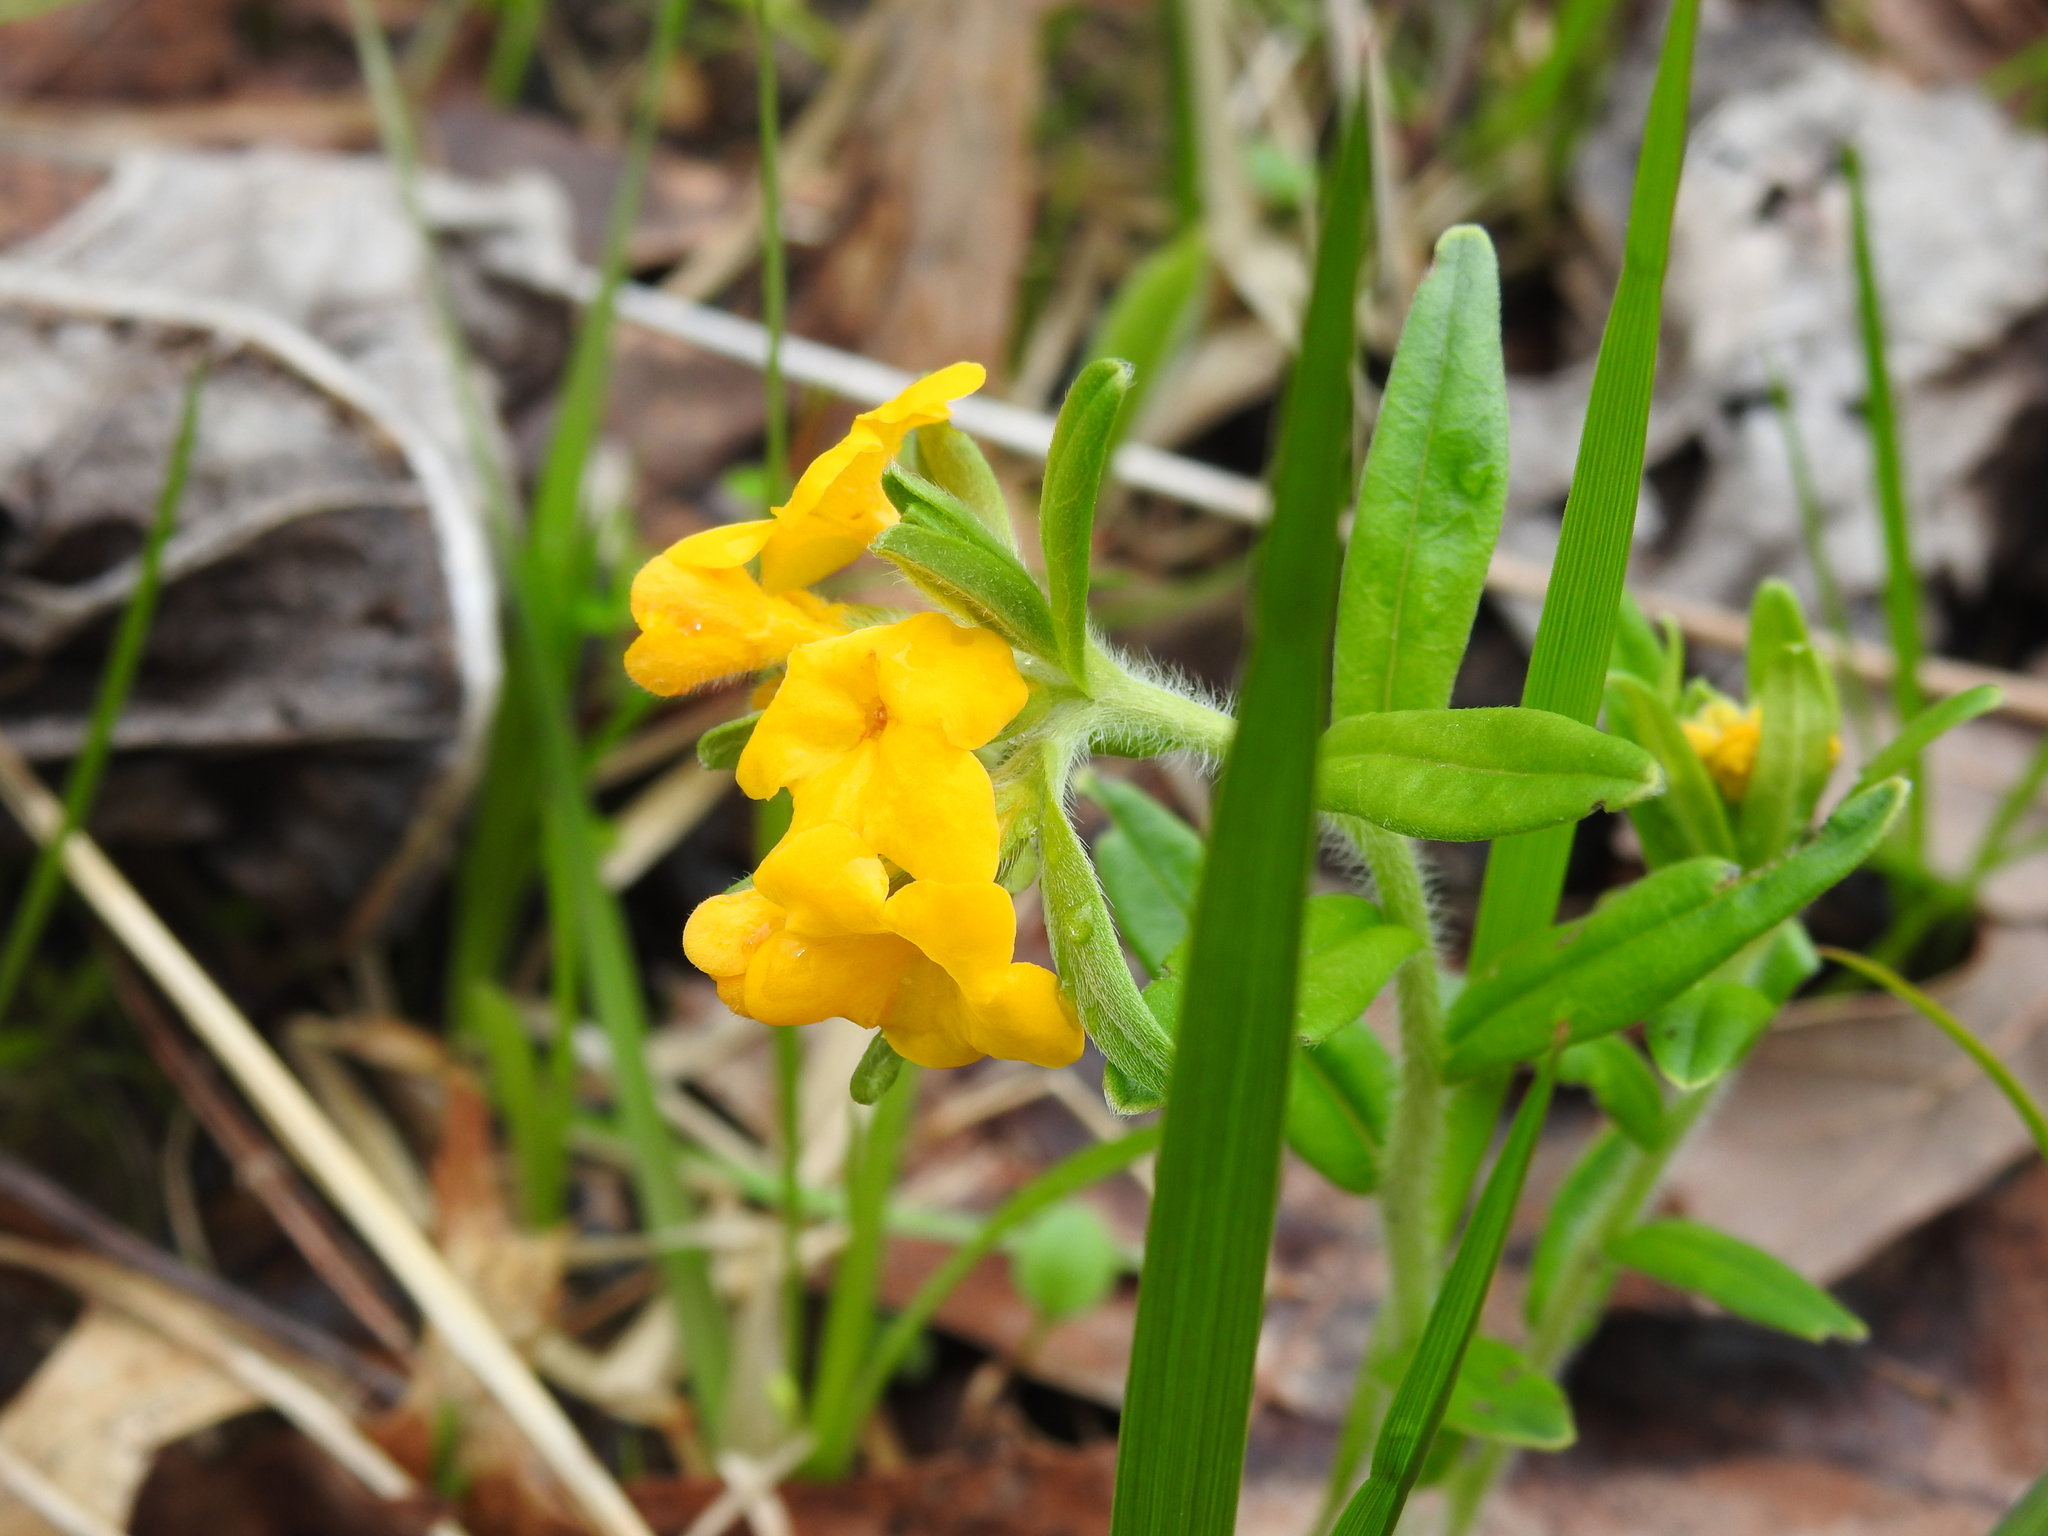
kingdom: Plantae
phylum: Tracheophyta
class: Magnoliopsida
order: Boraginales
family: Boraginaceae
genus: Lithospermum
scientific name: Lithospermum canescens
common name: Hoary puccoon
